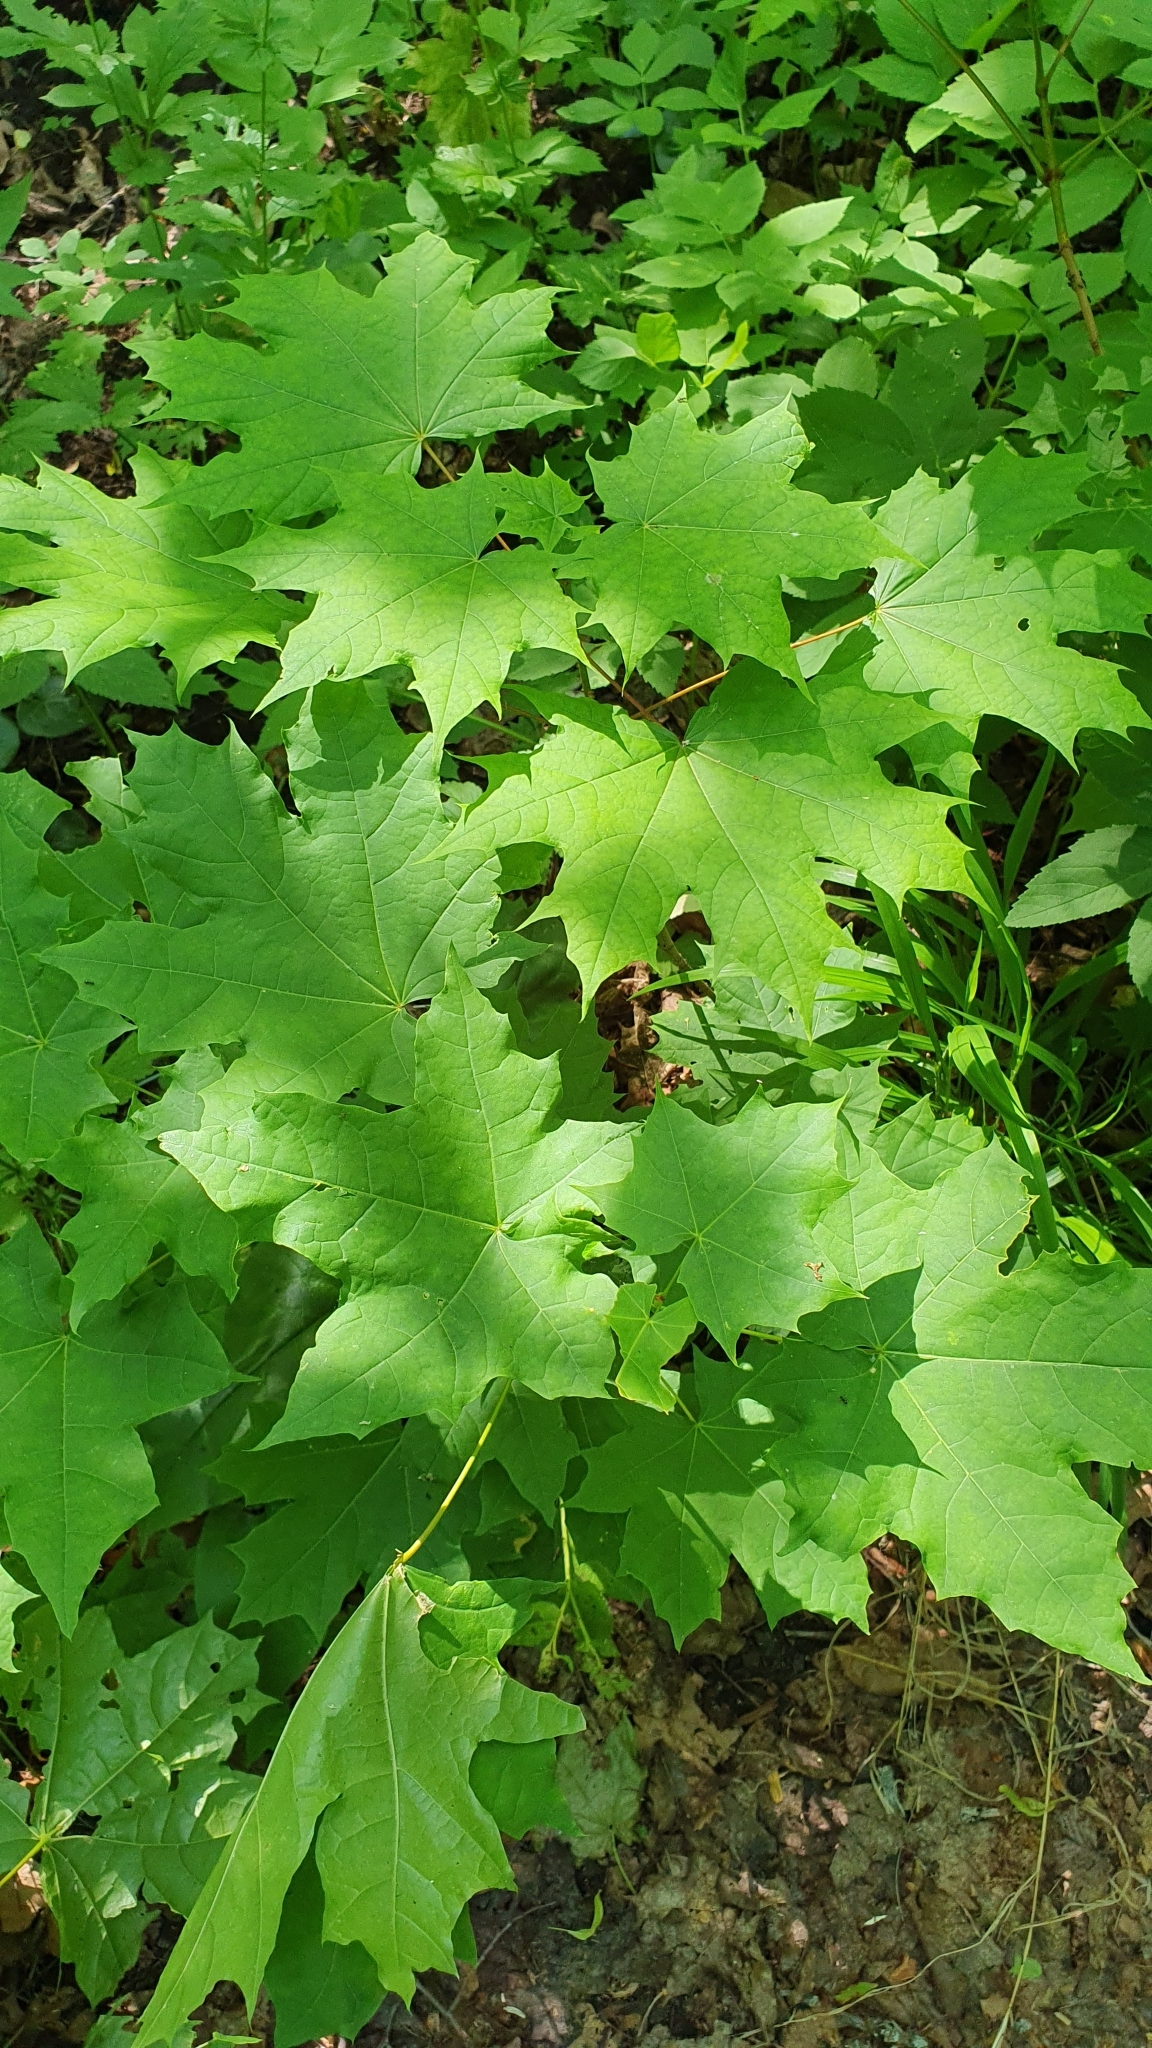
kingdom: Plantae
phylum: Tracheophyta
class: Magnoliopsida
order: Sapindales
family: Sapindaceae
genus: Acer
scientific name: Acer platanoides
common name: Norway maple
